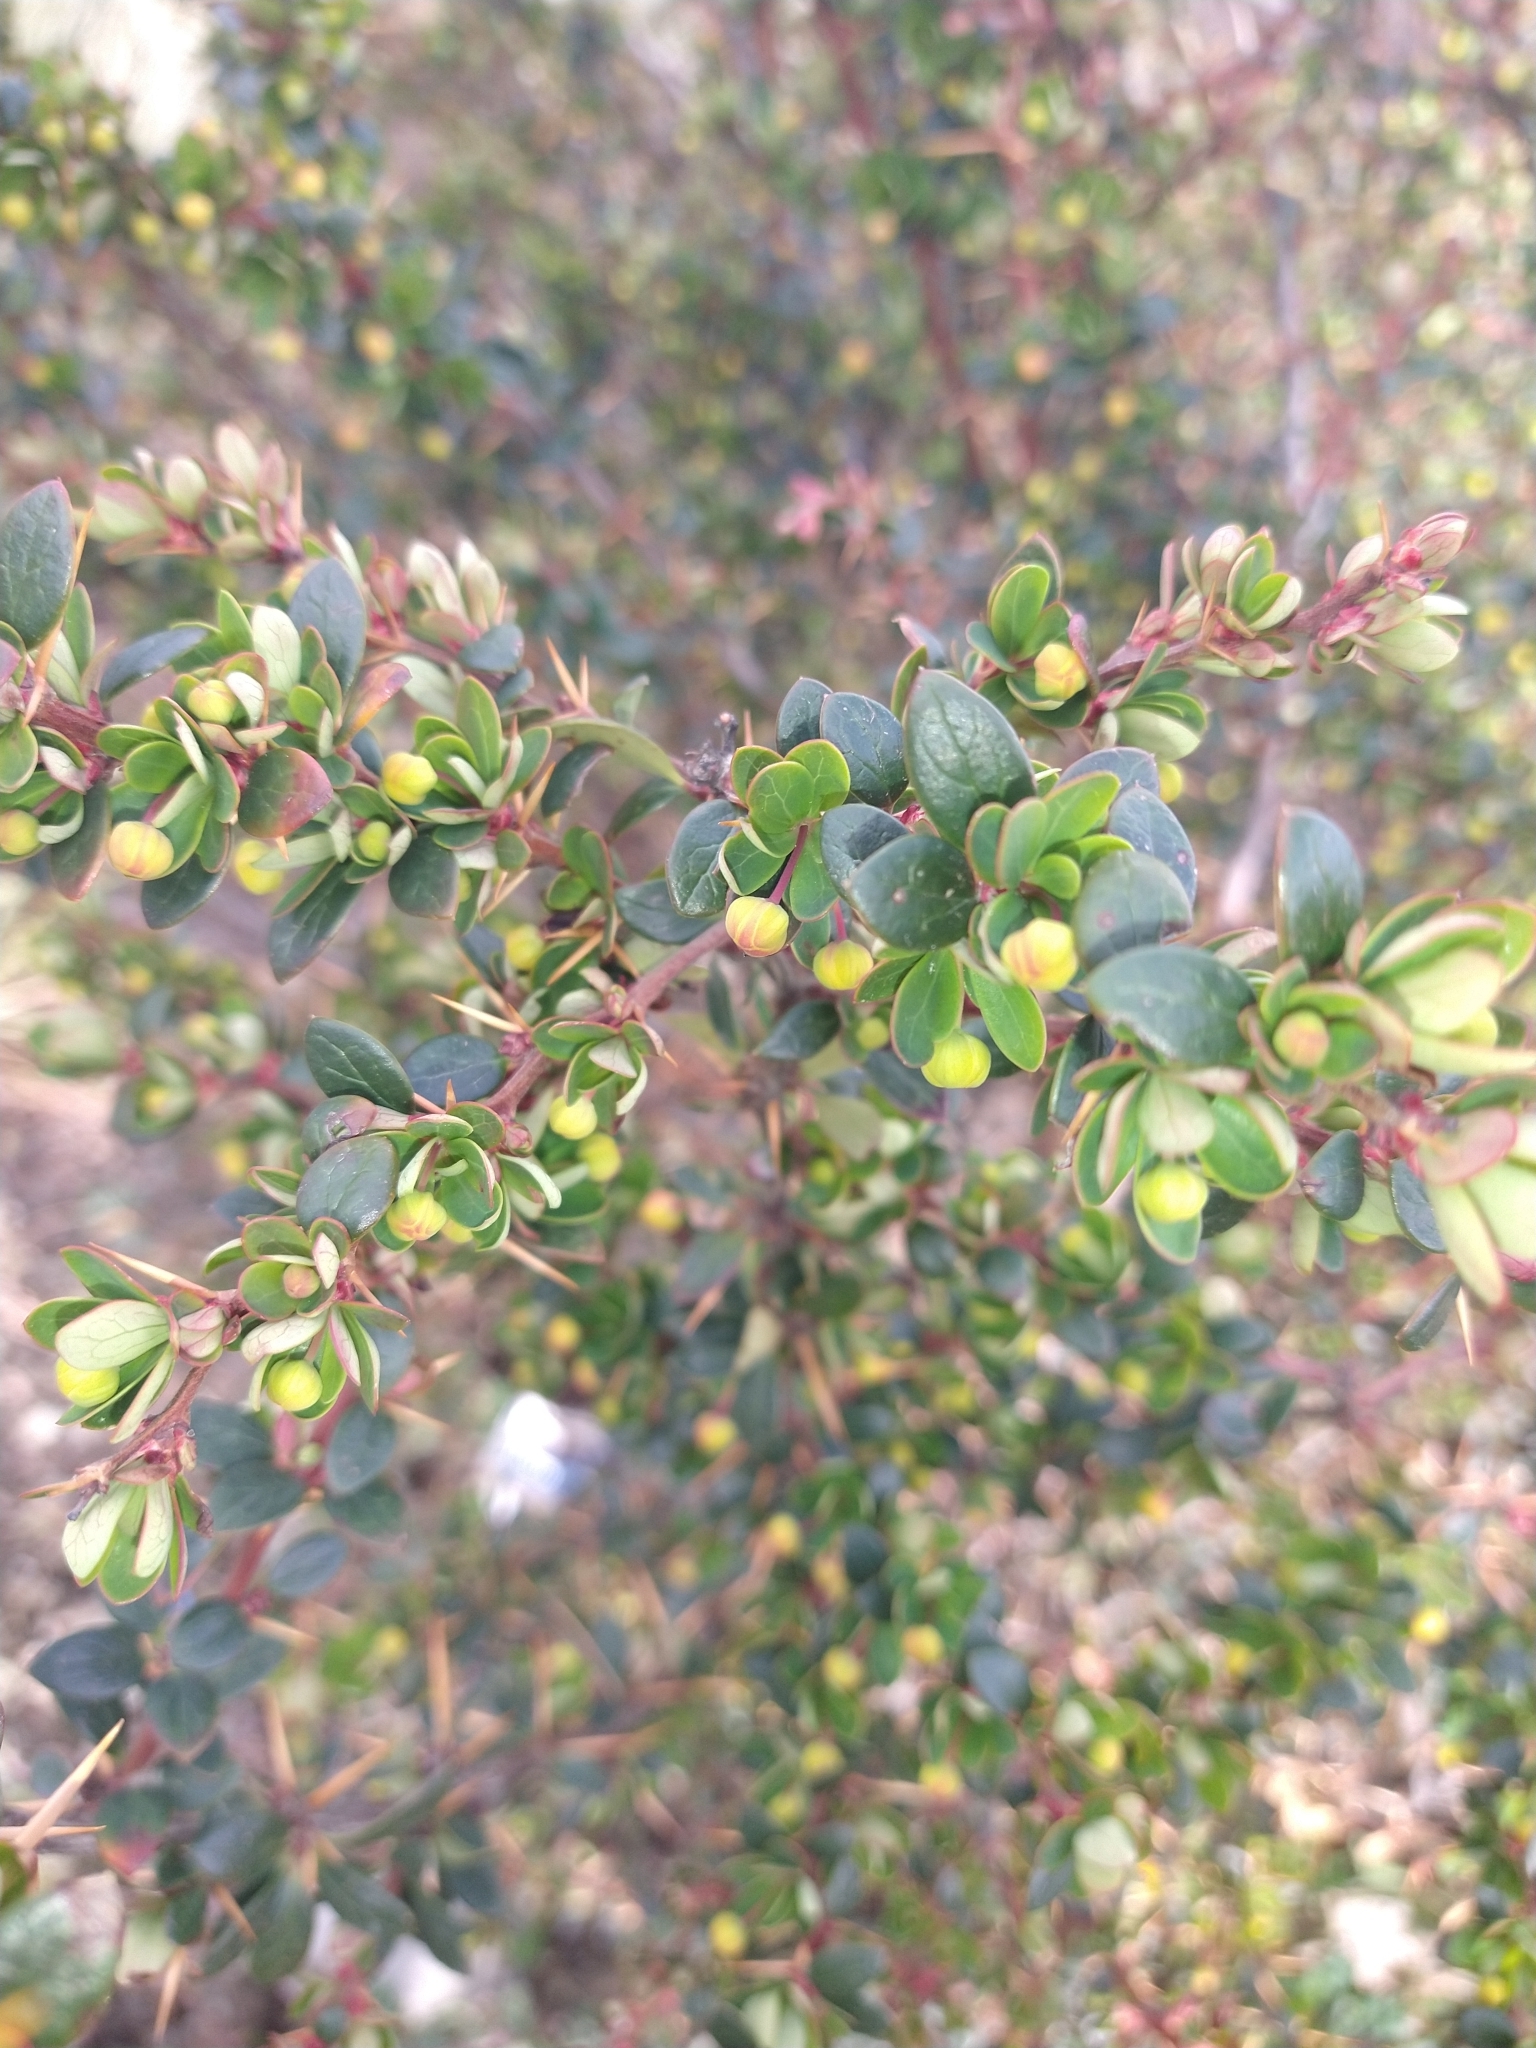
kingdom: Plantae
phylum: Tracheophyta
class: Magnoliopsida
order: Ranunculales
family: Berberidaceae
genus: Berberis
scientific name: Berberis microphylla
